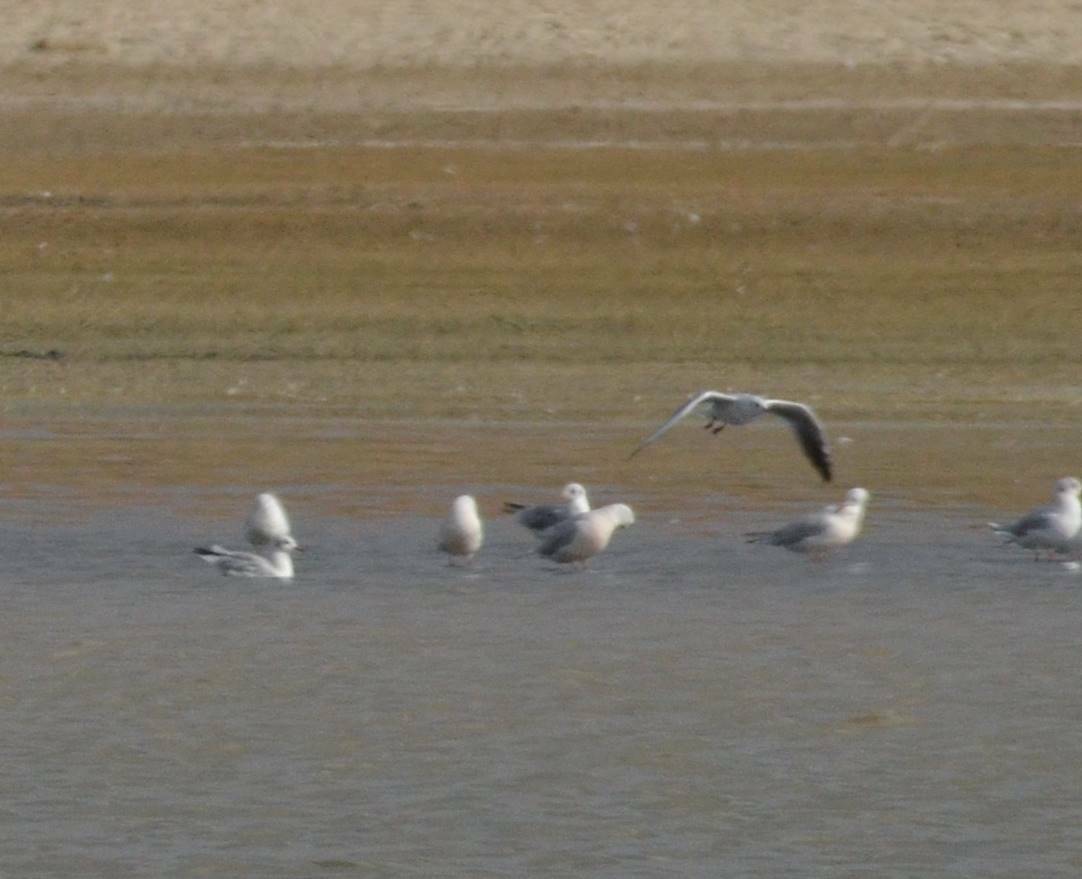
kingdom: Animalia
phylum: Chordata
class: Aves
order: Charadriiformes
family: Laridae
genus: Chroicocephalus
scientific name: Chroicocephalus ridibundus
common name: Black-headed gull
